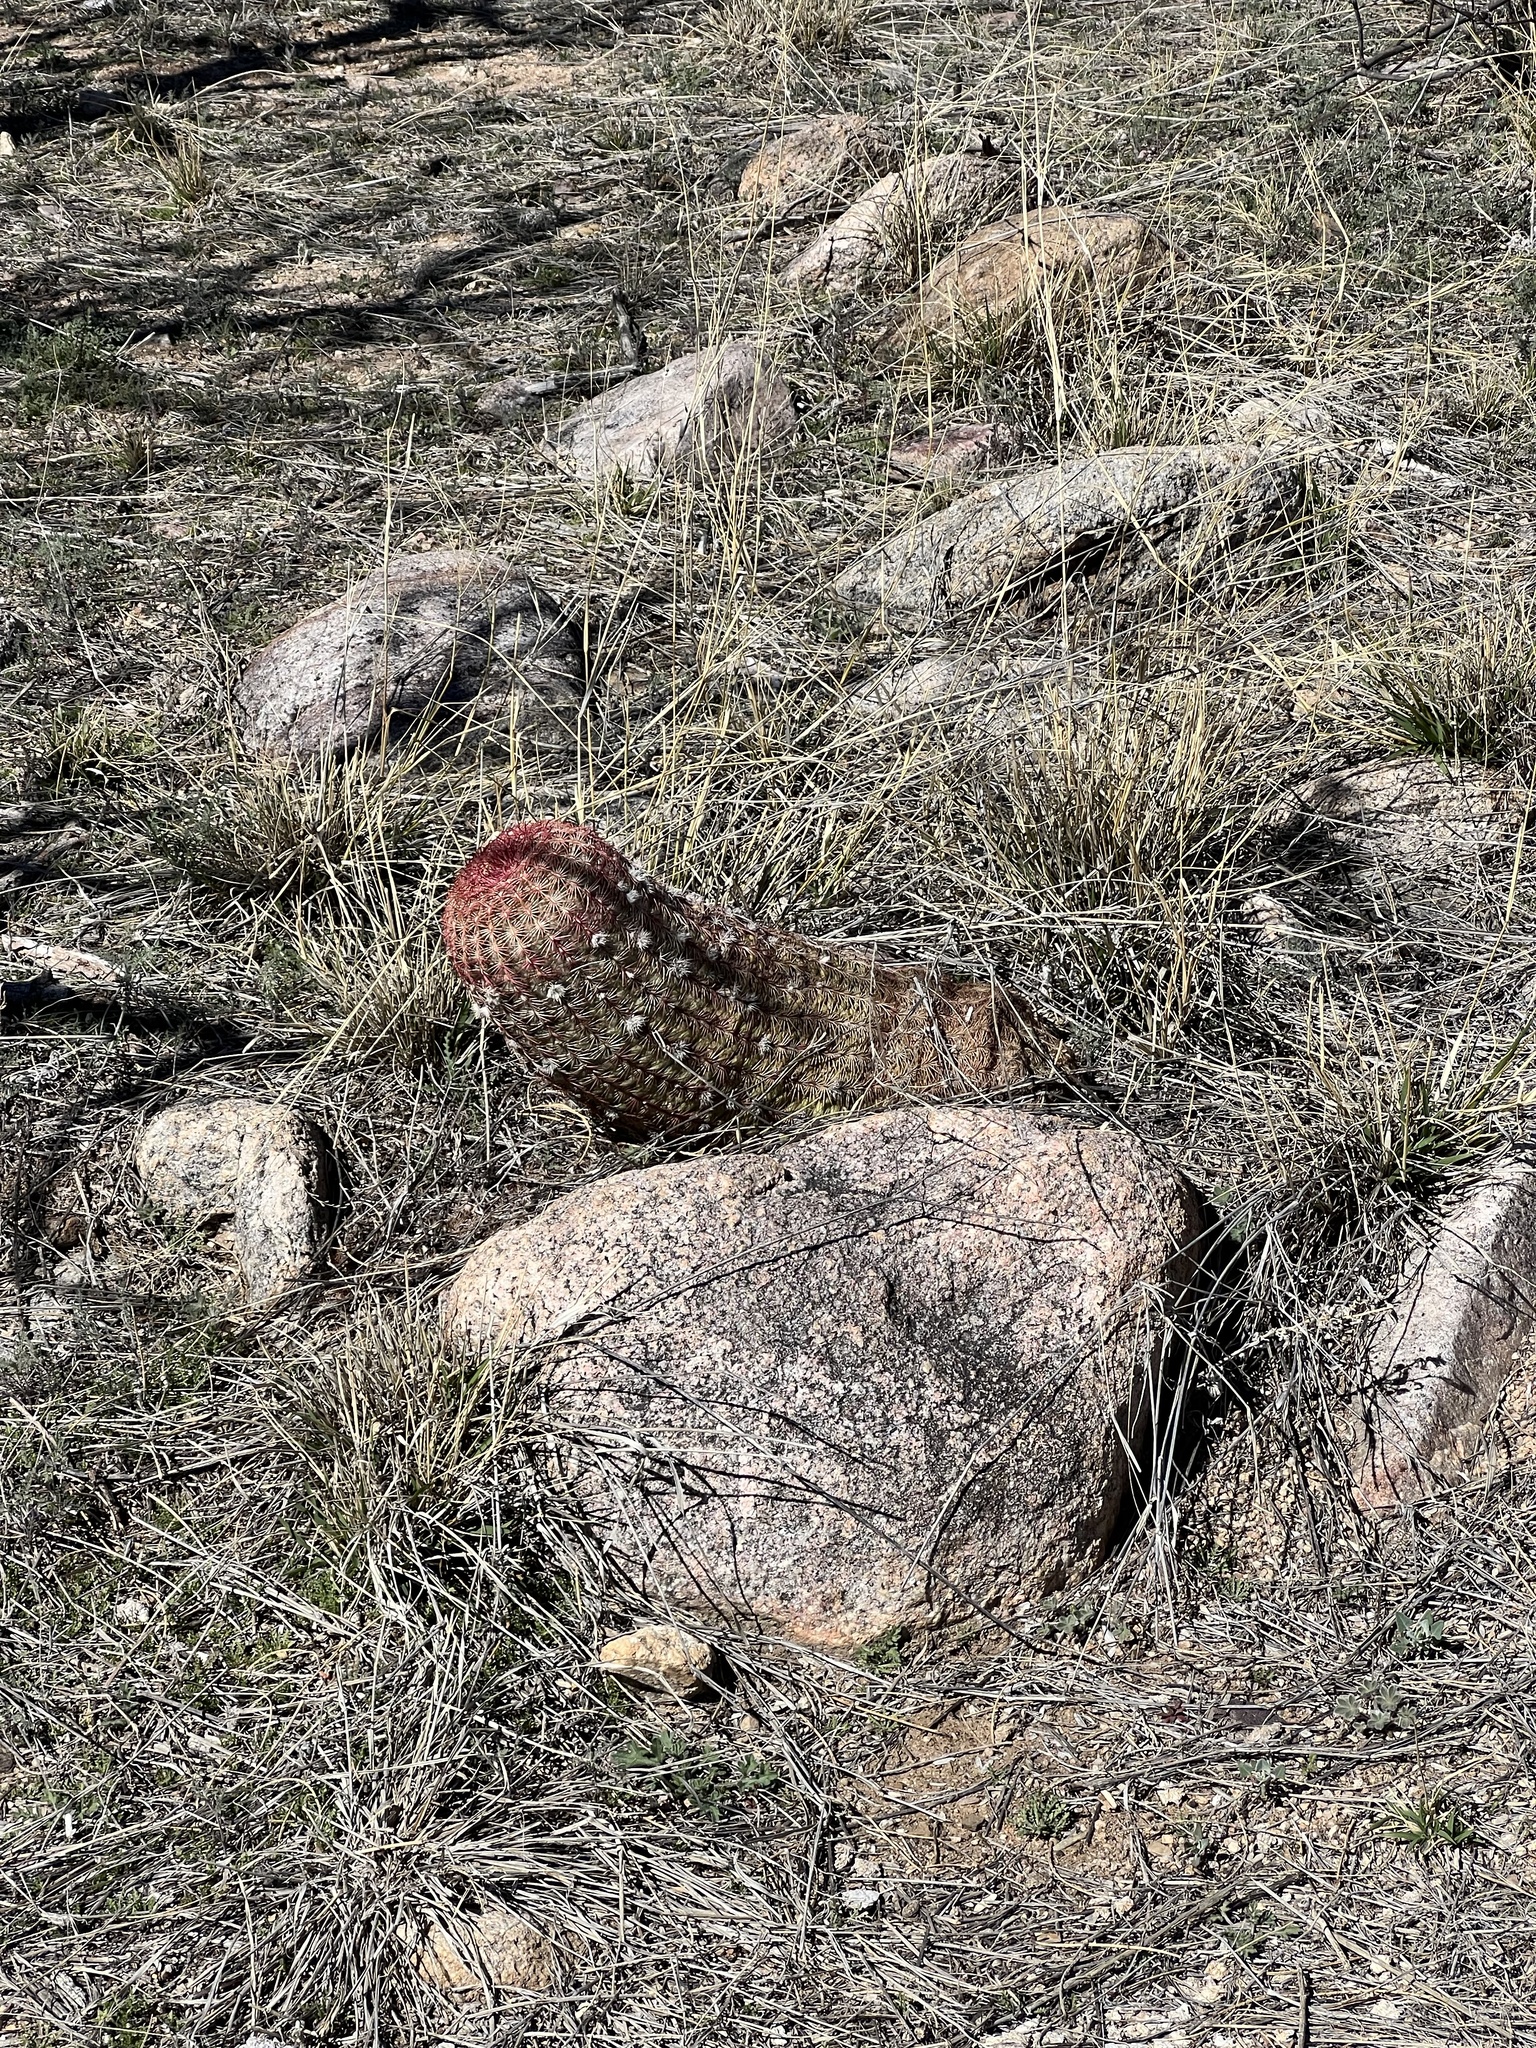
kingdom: Plantae
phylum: Tracheophyta
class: Magnoliopsida
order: Caryophyllales
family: Cactaceae
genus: Echinocereus
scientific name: Echinocereus rigidissimus
